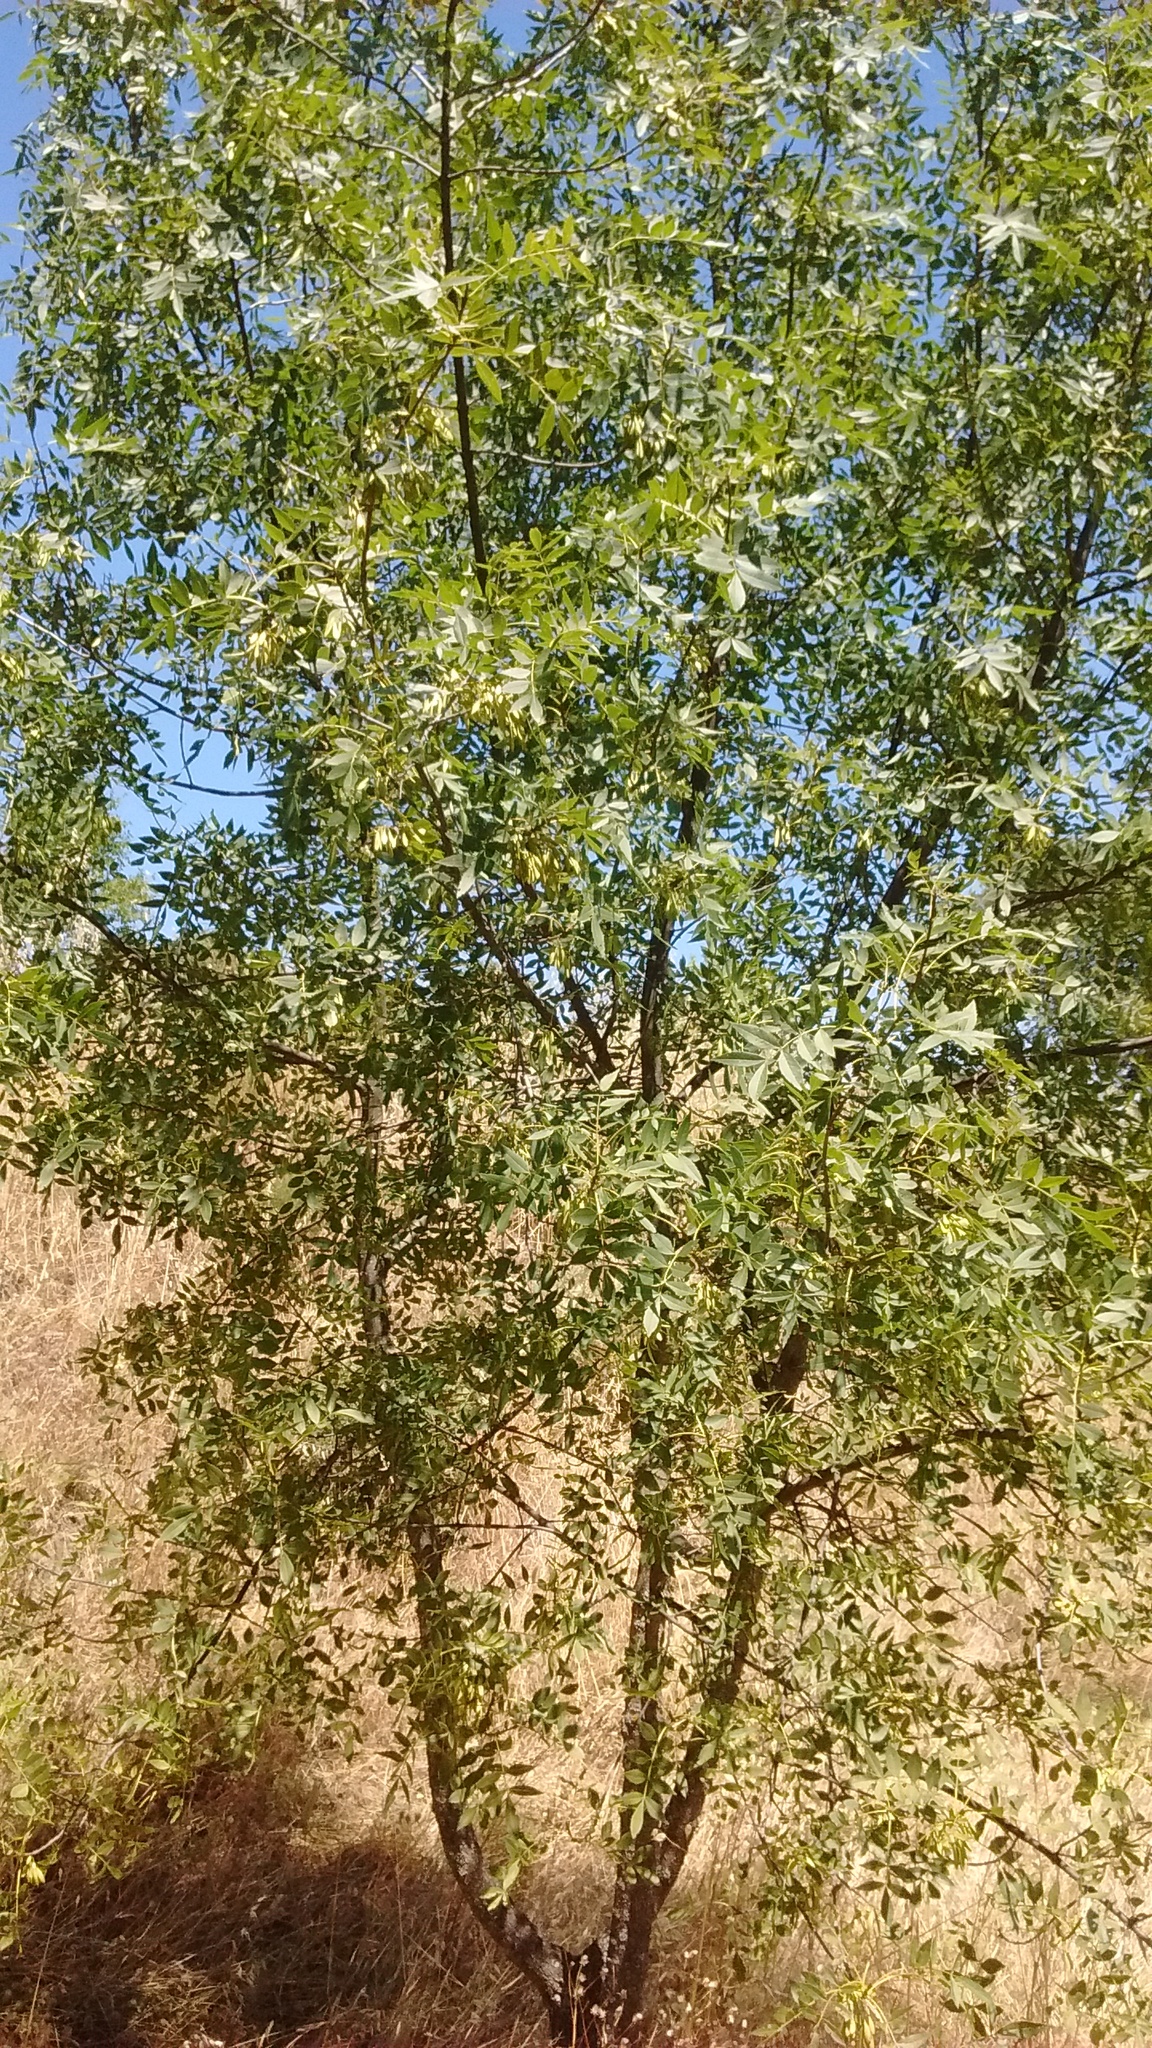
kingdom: Plantae
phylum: Tracheophyta
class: Magnoliopsida
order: Lamiales
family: Oleaceae
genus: Fraxinus
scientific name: Fraxinus angustifolia
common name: Narrow-leafed ash
